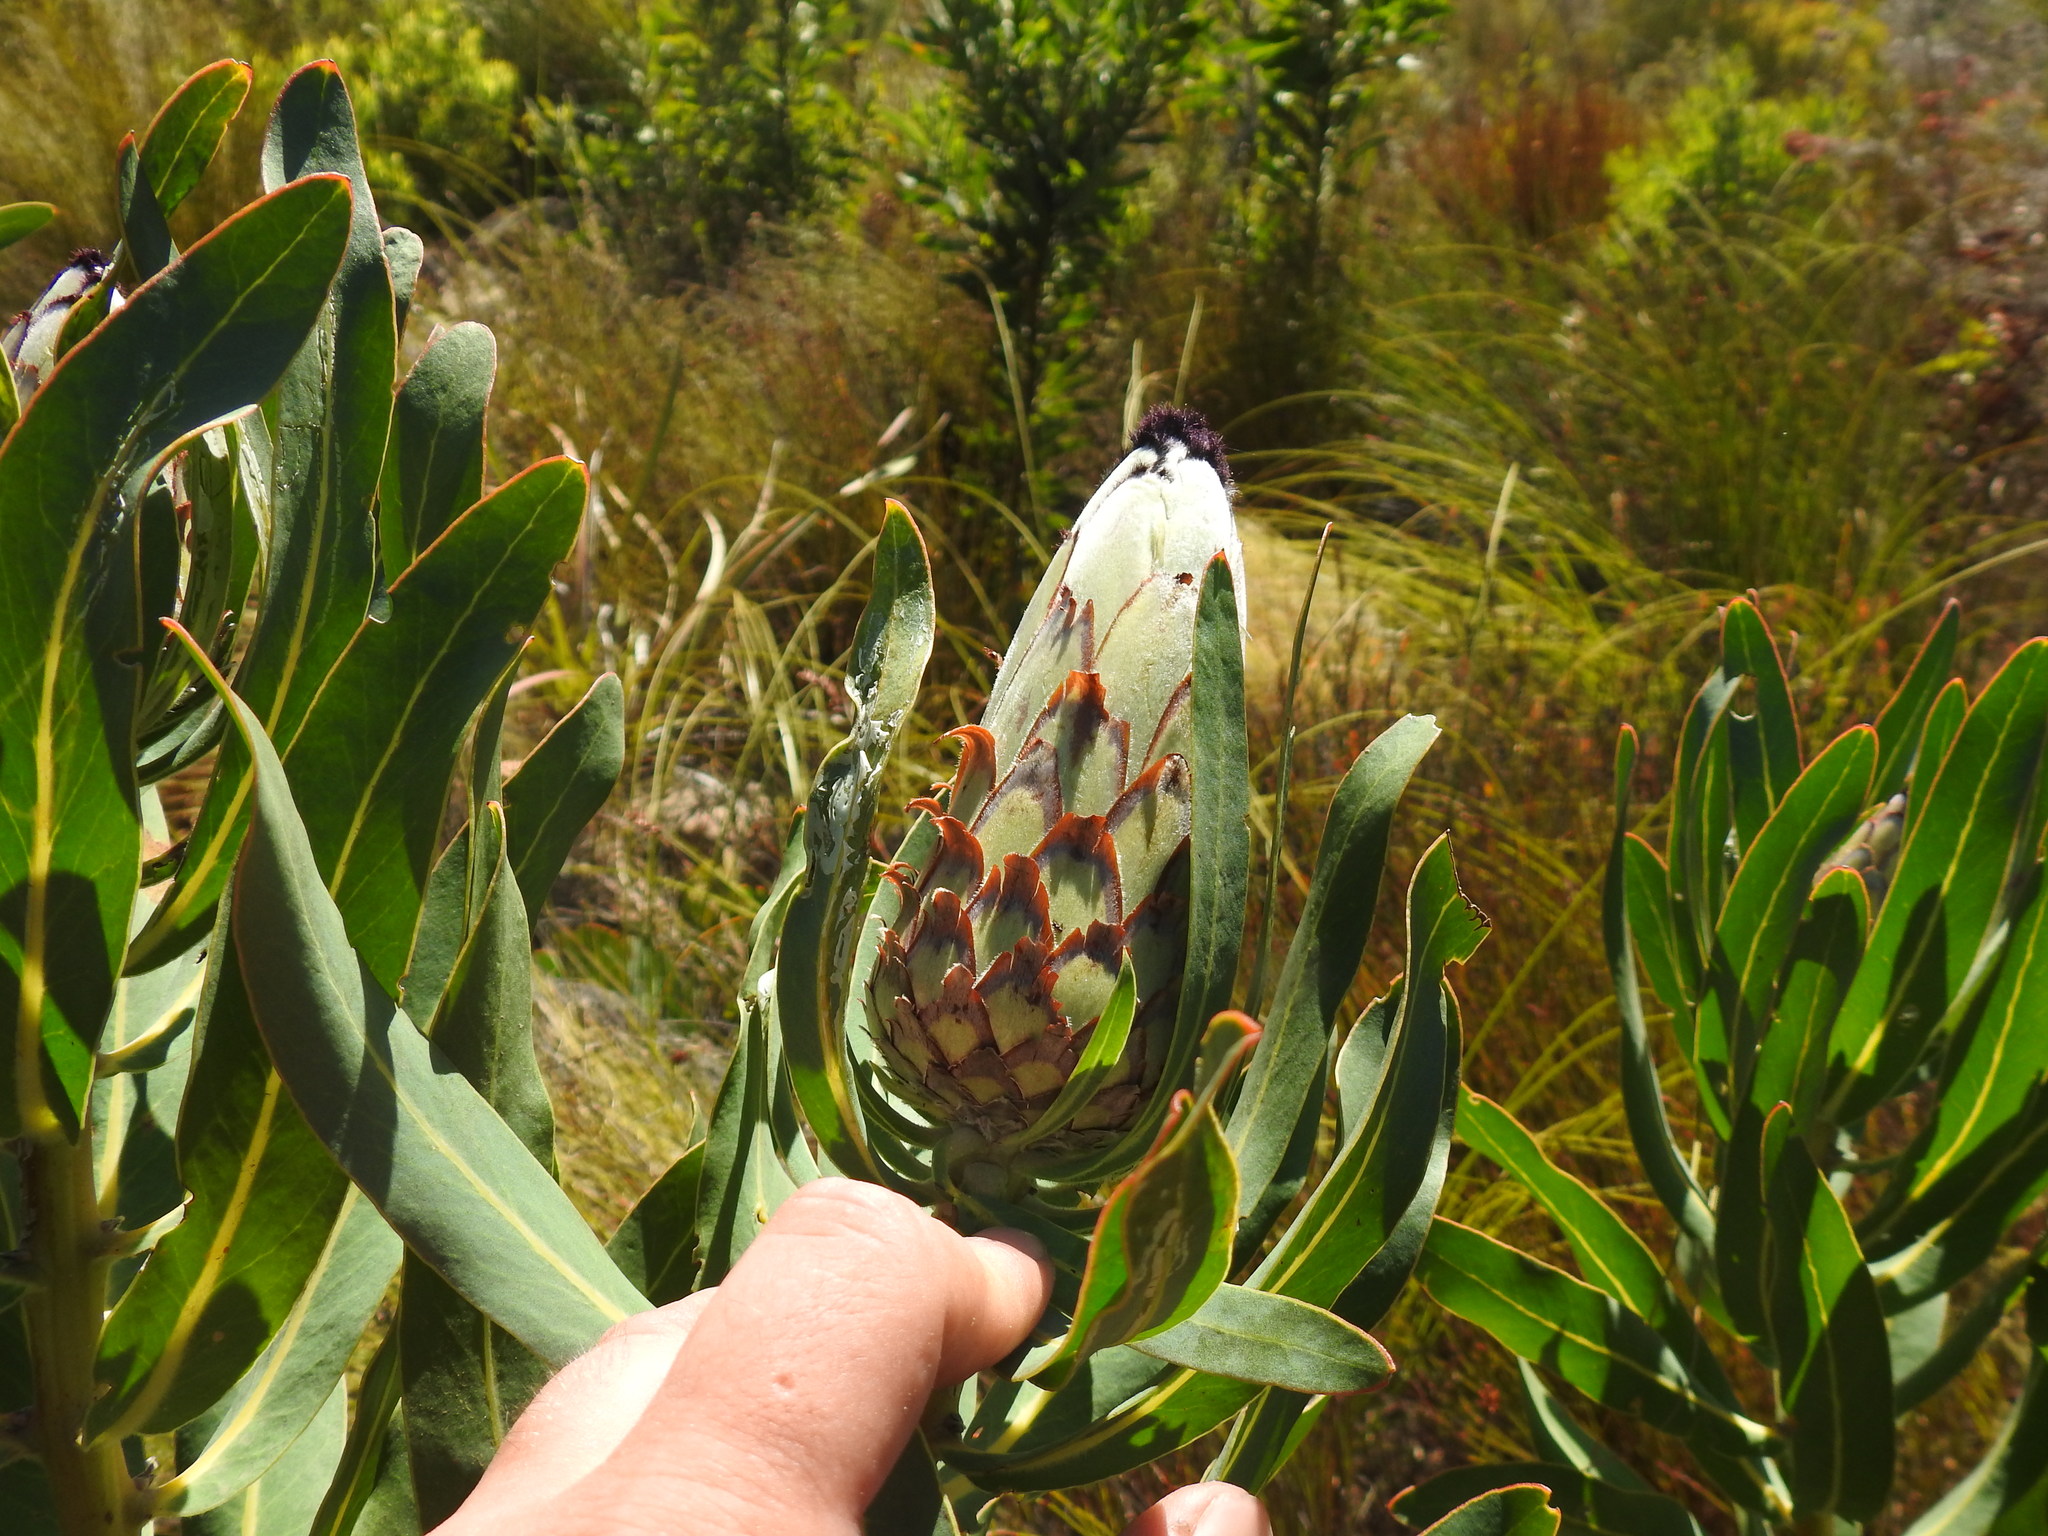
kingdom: Plantae
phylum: Tracheophyta
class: Magnoliopsida
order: Proteales
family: Proteaceae
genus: Protea
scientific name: Protea neriifolia
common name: Blue sugarbush
